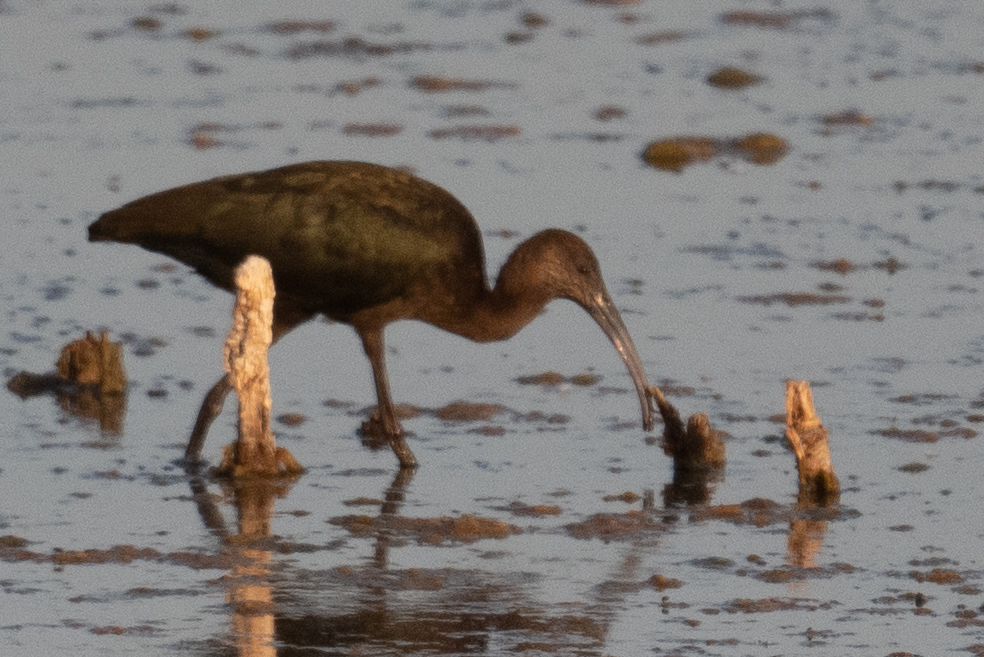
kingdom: Animalia
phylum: Chordata
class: Aves
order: Pelecaniformes
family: Threskiornithidae
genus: Plegadis
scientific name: Plegadis chihi
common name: White-faced ibis
